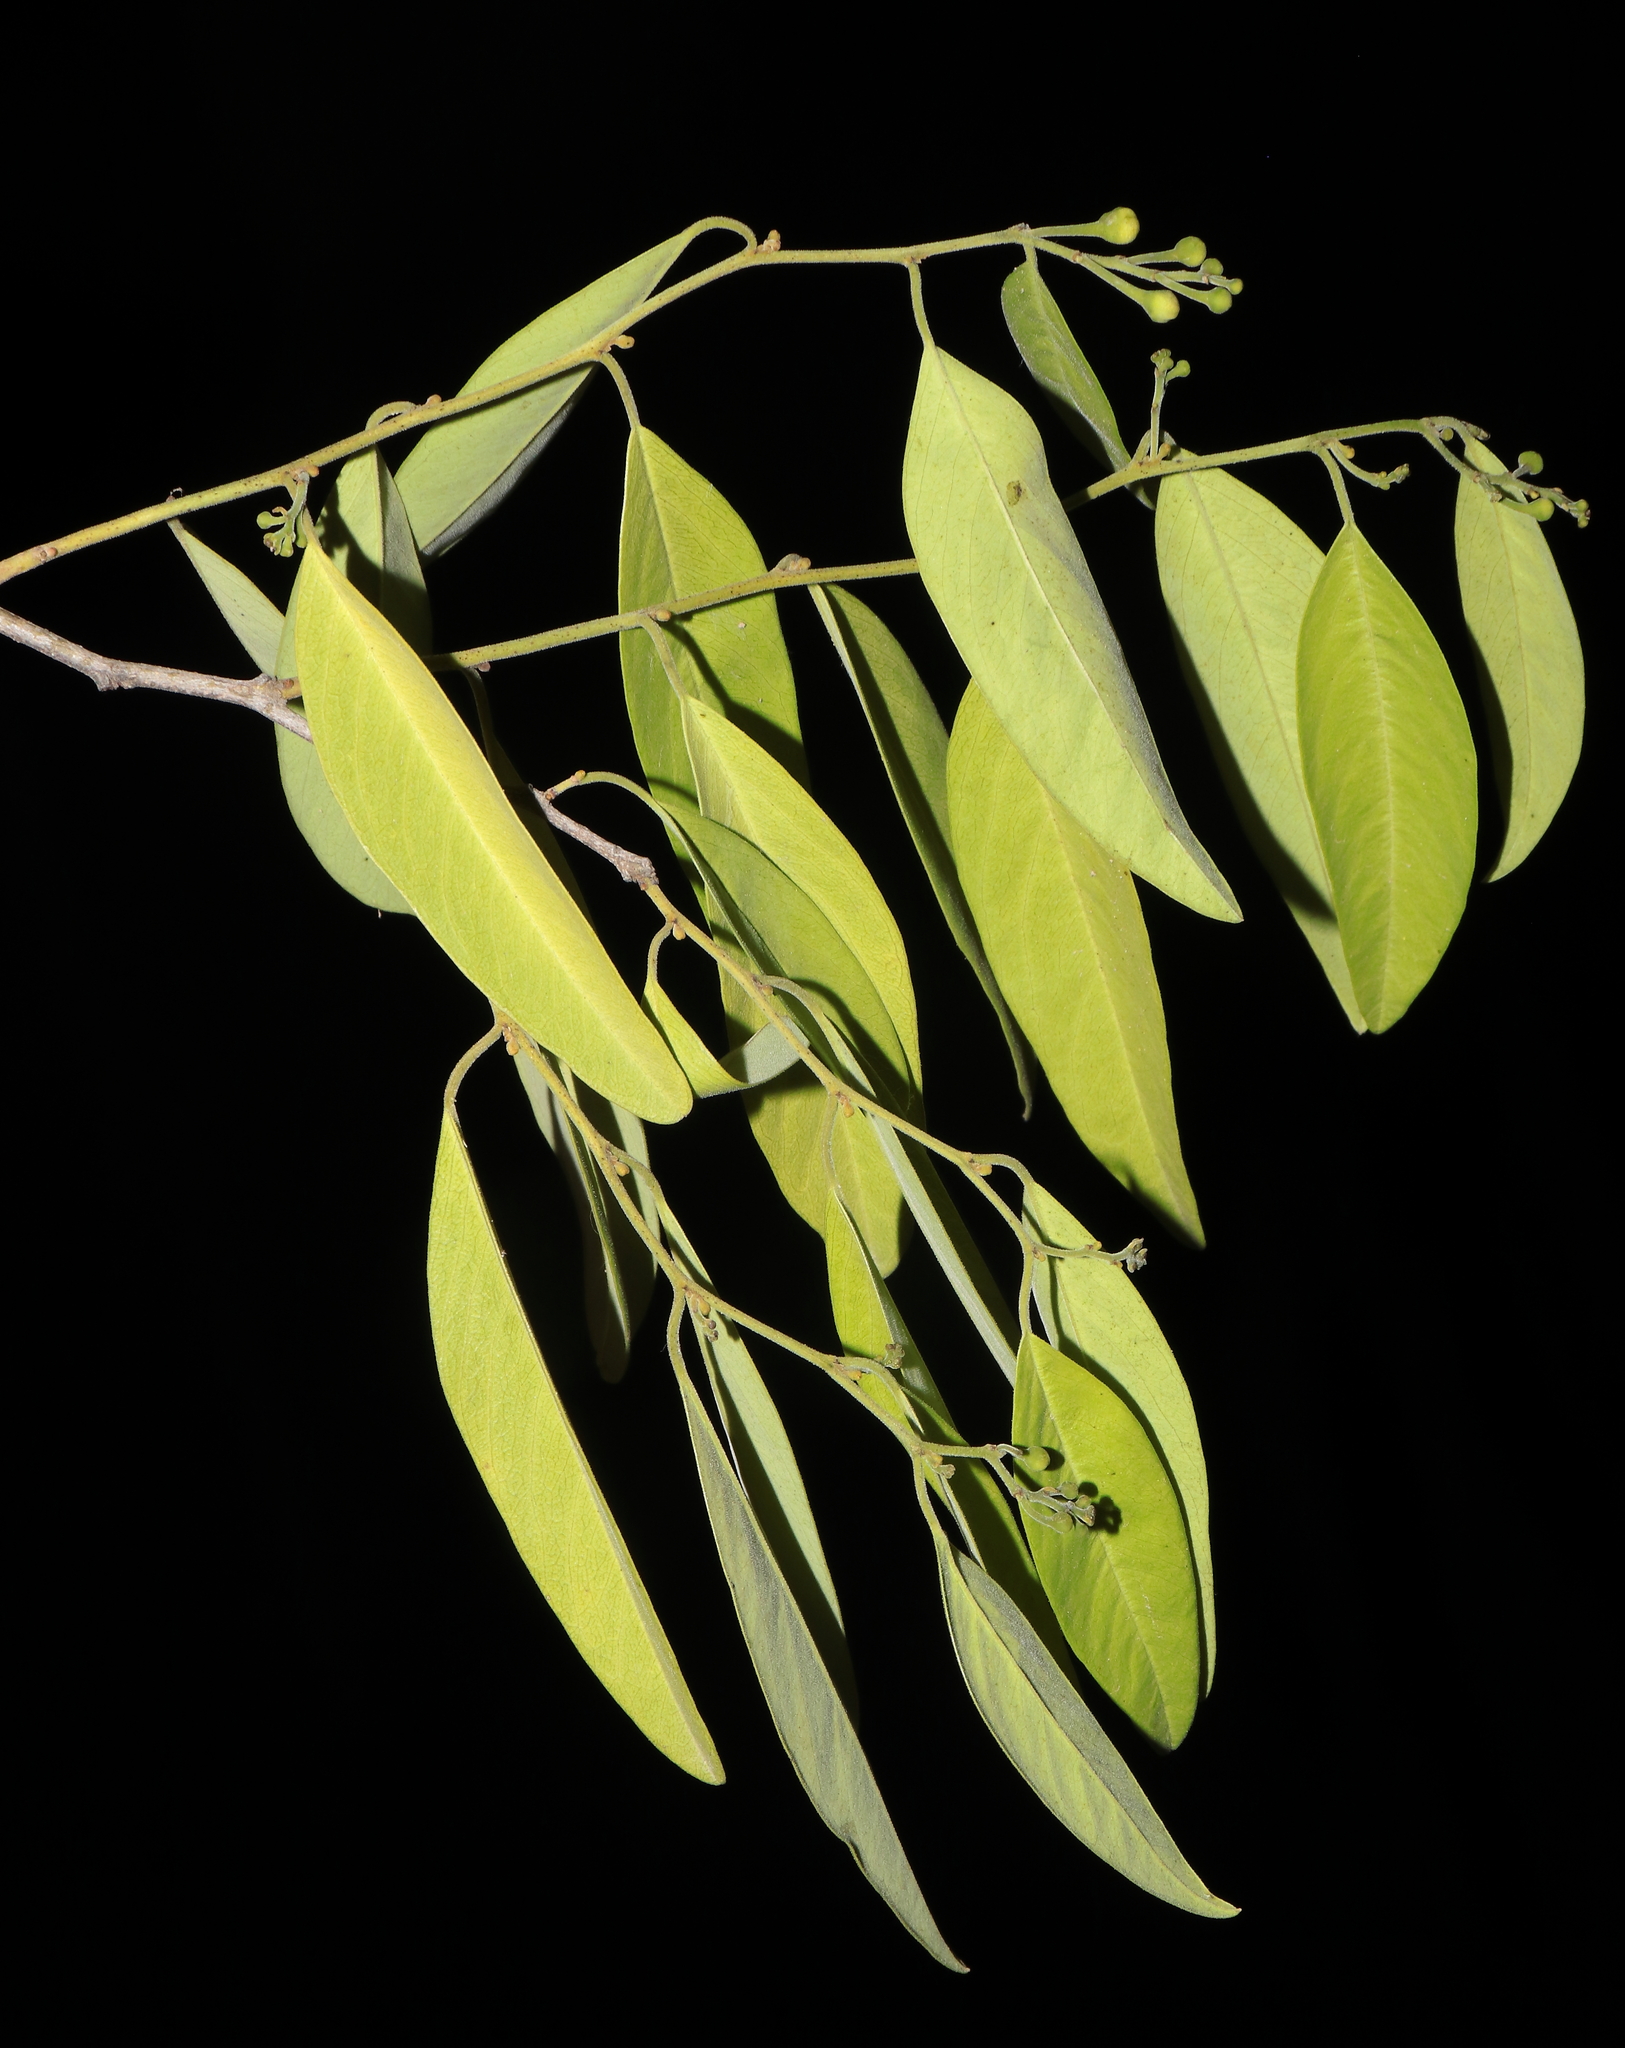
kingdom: Plantae
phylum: Tracheophyta
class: Magnoliopsida
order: Brassicales
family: Capparaceae
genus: Cynophalla
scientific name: Cynophalla flexuosa
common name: Capertree
